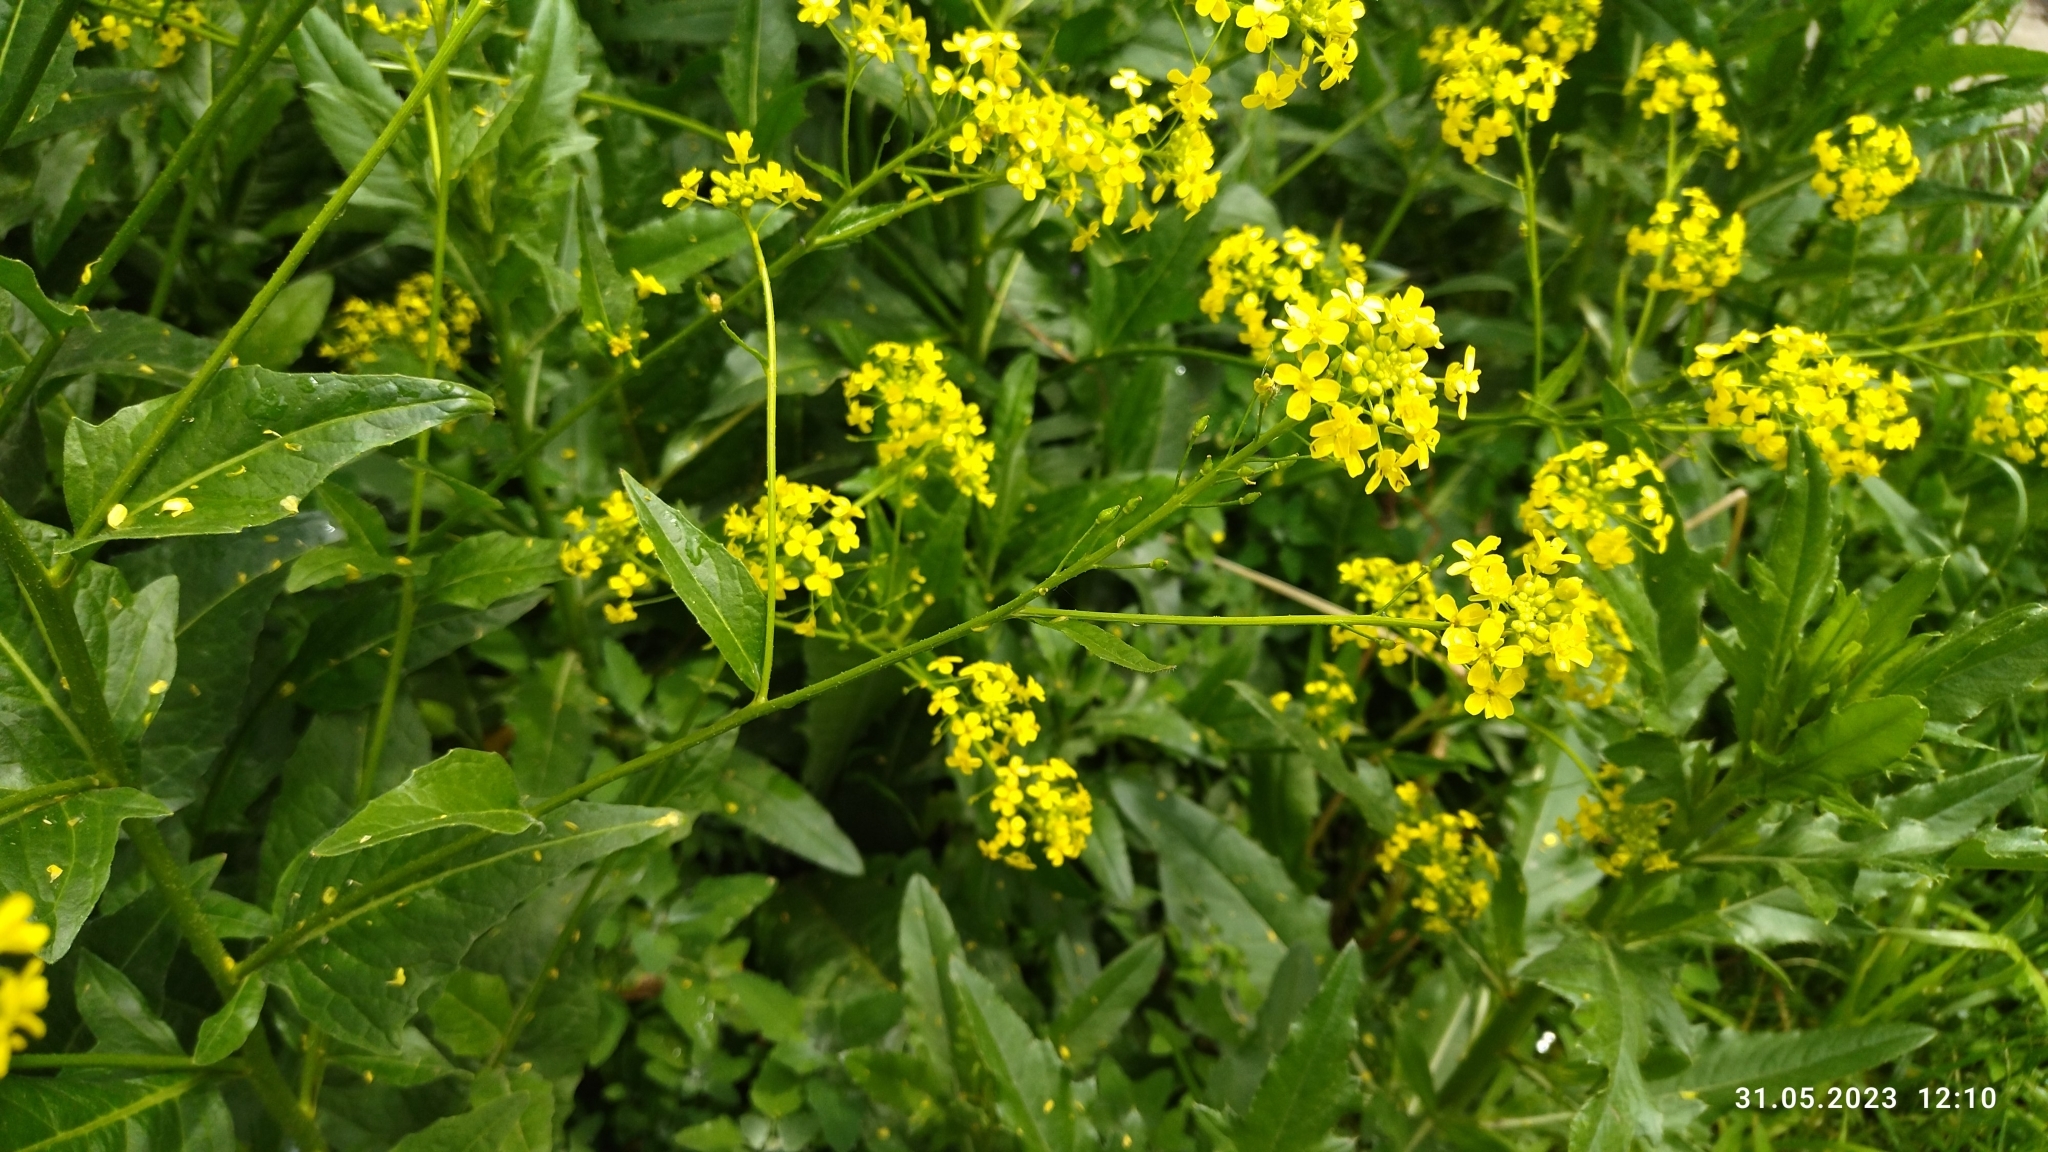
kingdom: Plantae
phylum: Tracheophyta
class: Magnoliopsida
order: Brassicales
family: Brassicaceae
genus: Bunias
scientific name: Bunias orientalis
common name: Warty-cabbage
